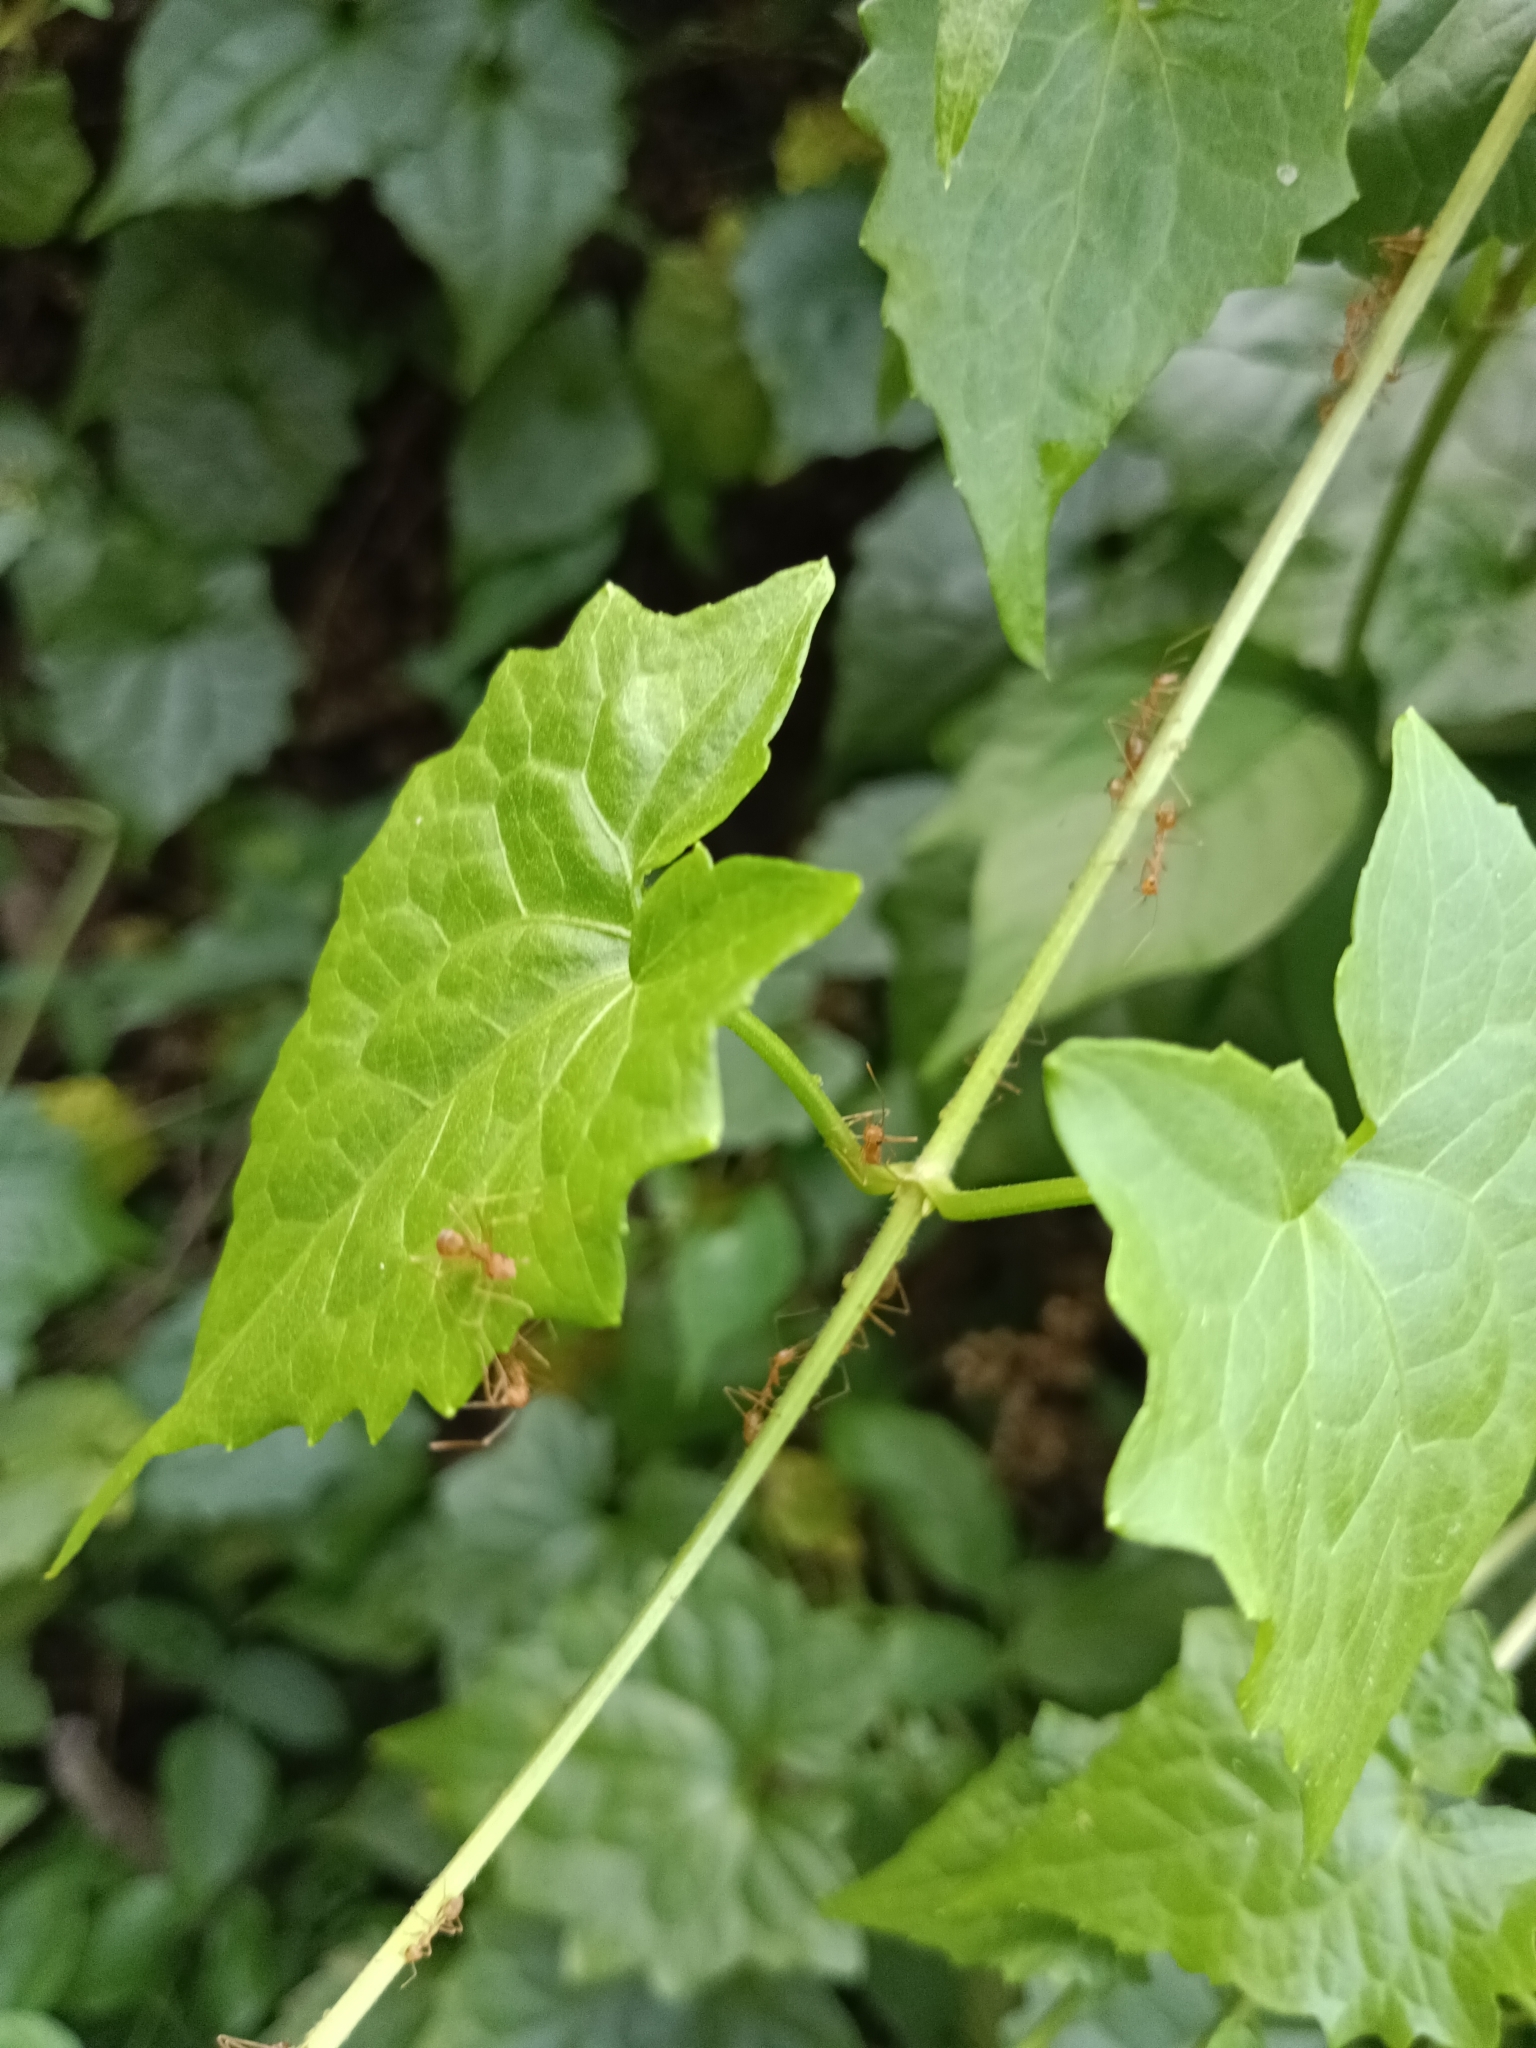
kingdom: Animalia
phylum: Arthropoda
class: Insecta
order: Hymenoptera
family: Formicidae
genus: Oecophylla
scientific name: Oecophylla smaragdina
